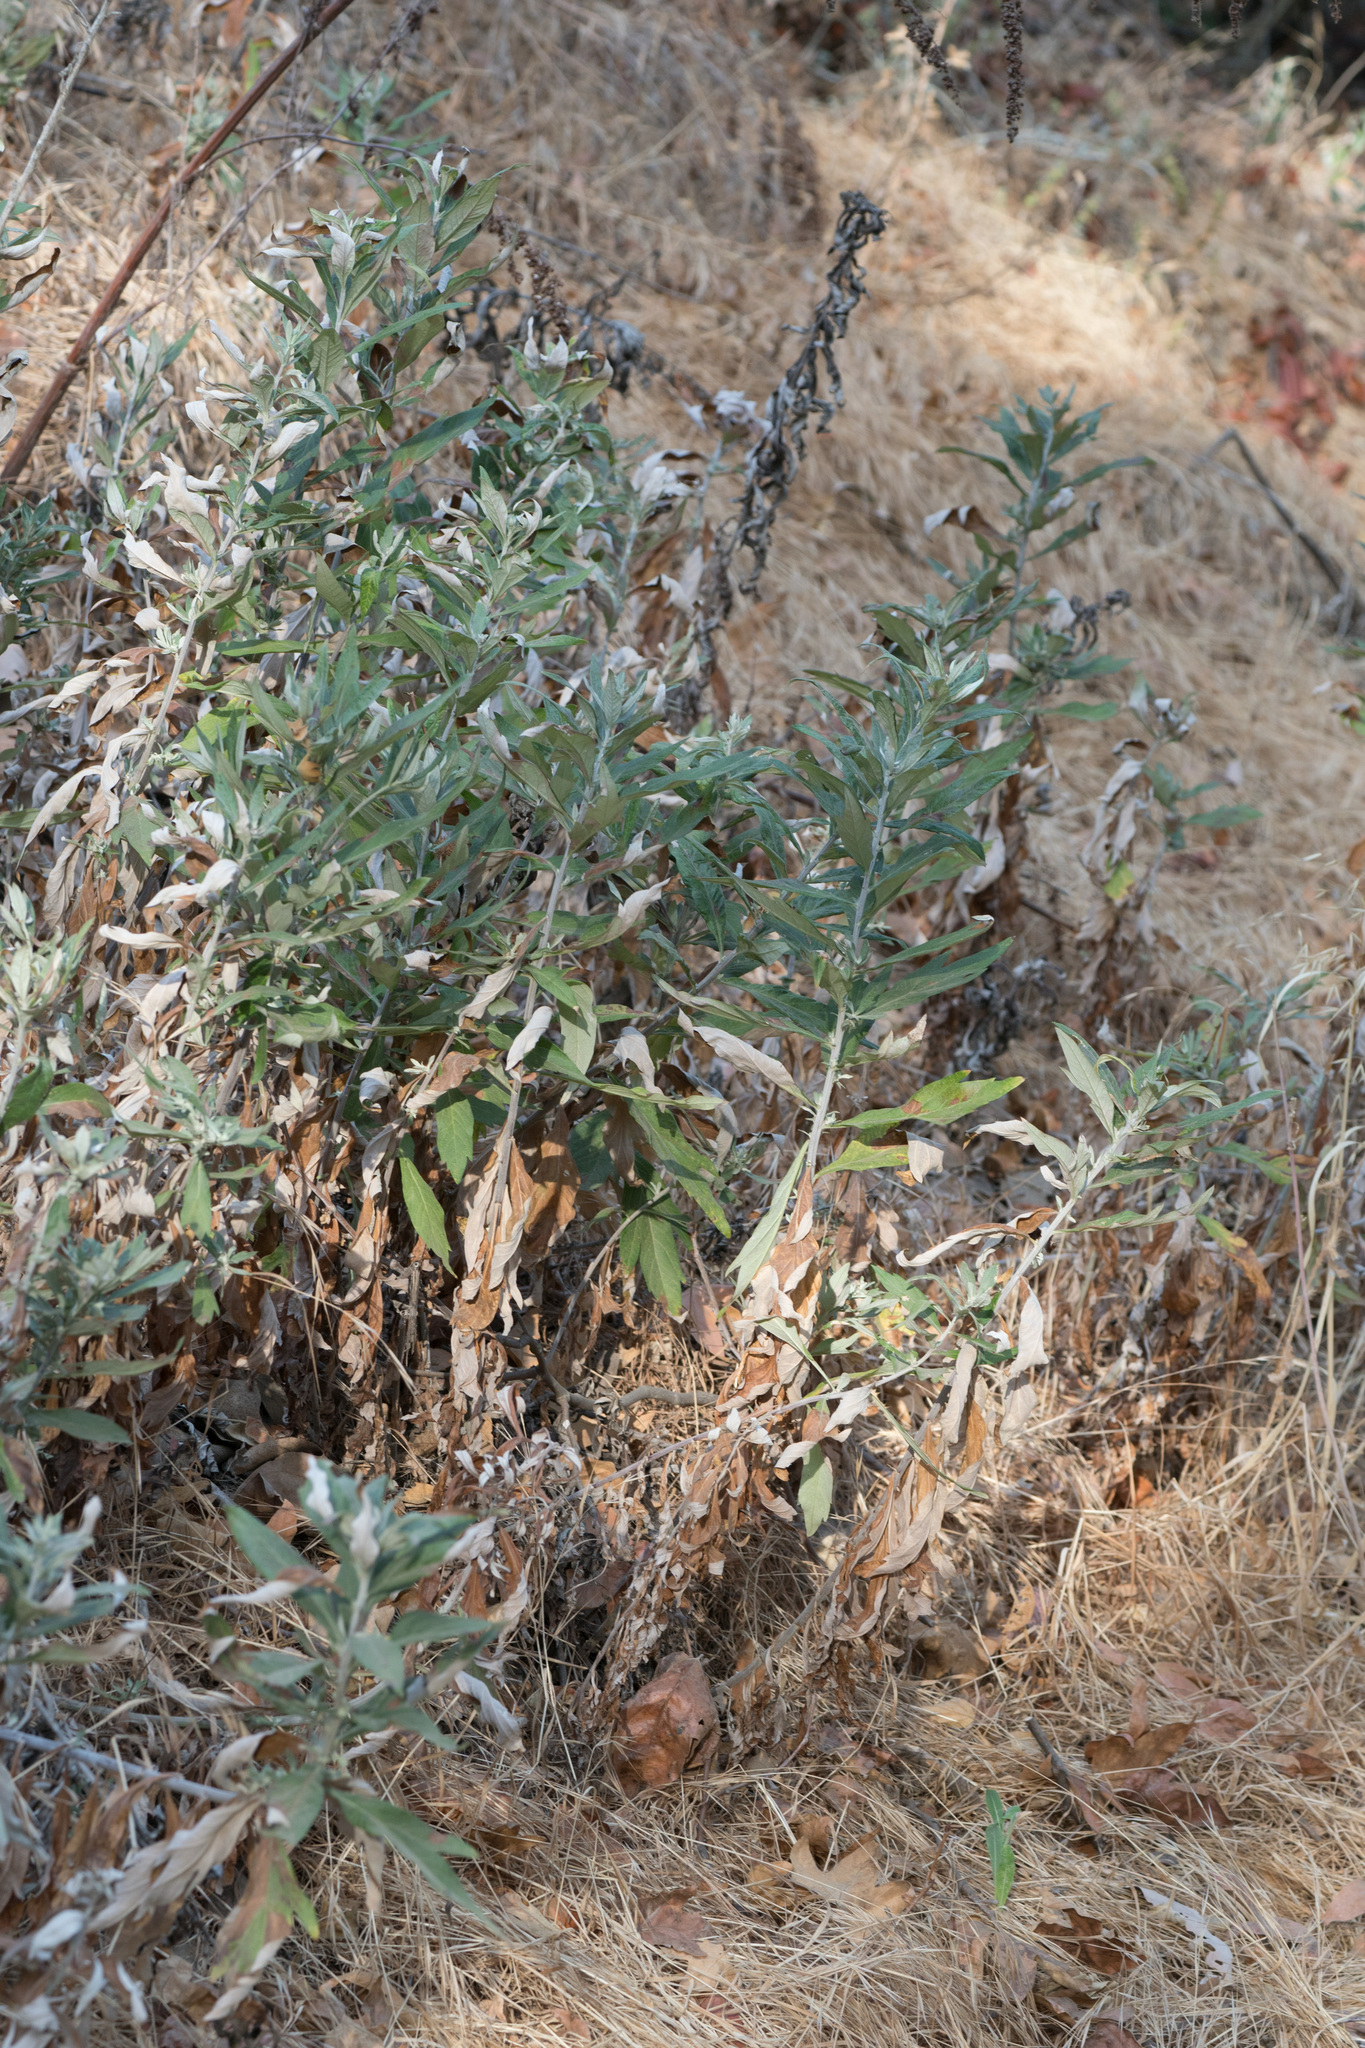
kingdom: Plantae
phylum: Tracheophyta
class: Magnoliopsida
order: Asterales
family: Asteraceae
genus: Artemisia
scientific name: Artemisia douglasiana
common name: Northwest mugwort
